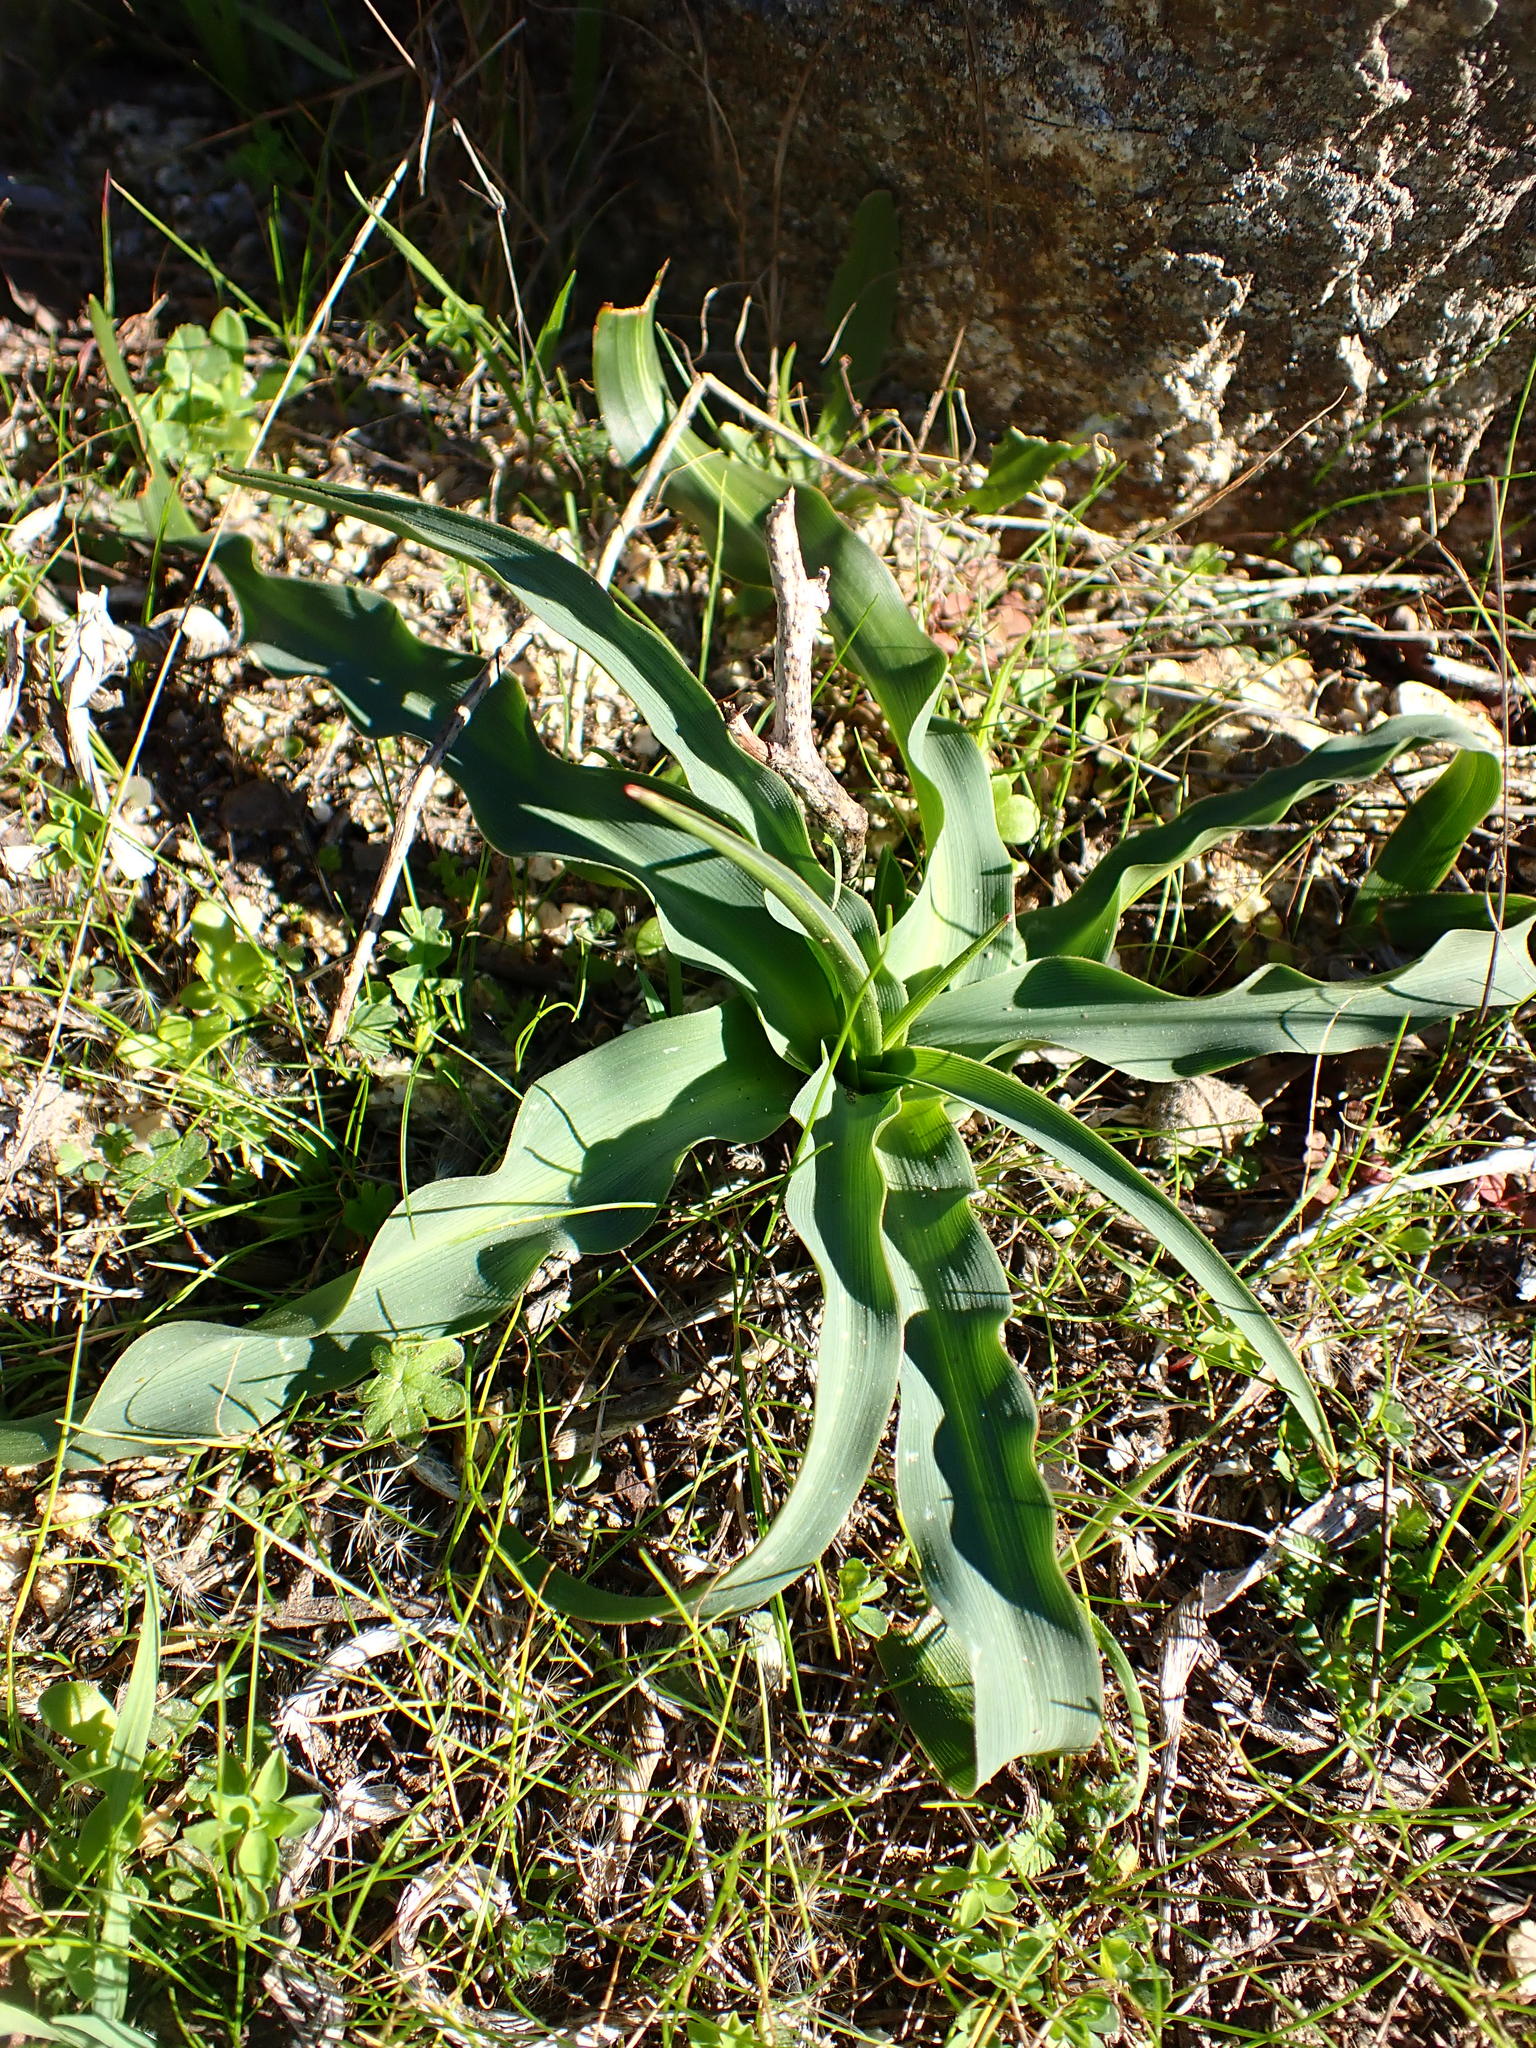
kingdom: Plantae
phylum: Tracheophyta
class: Liliopsida
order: Asparagales
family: Asparagaceae
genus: Chlorogalum
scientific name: Chlorogalum pomeridianum
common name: Amole
